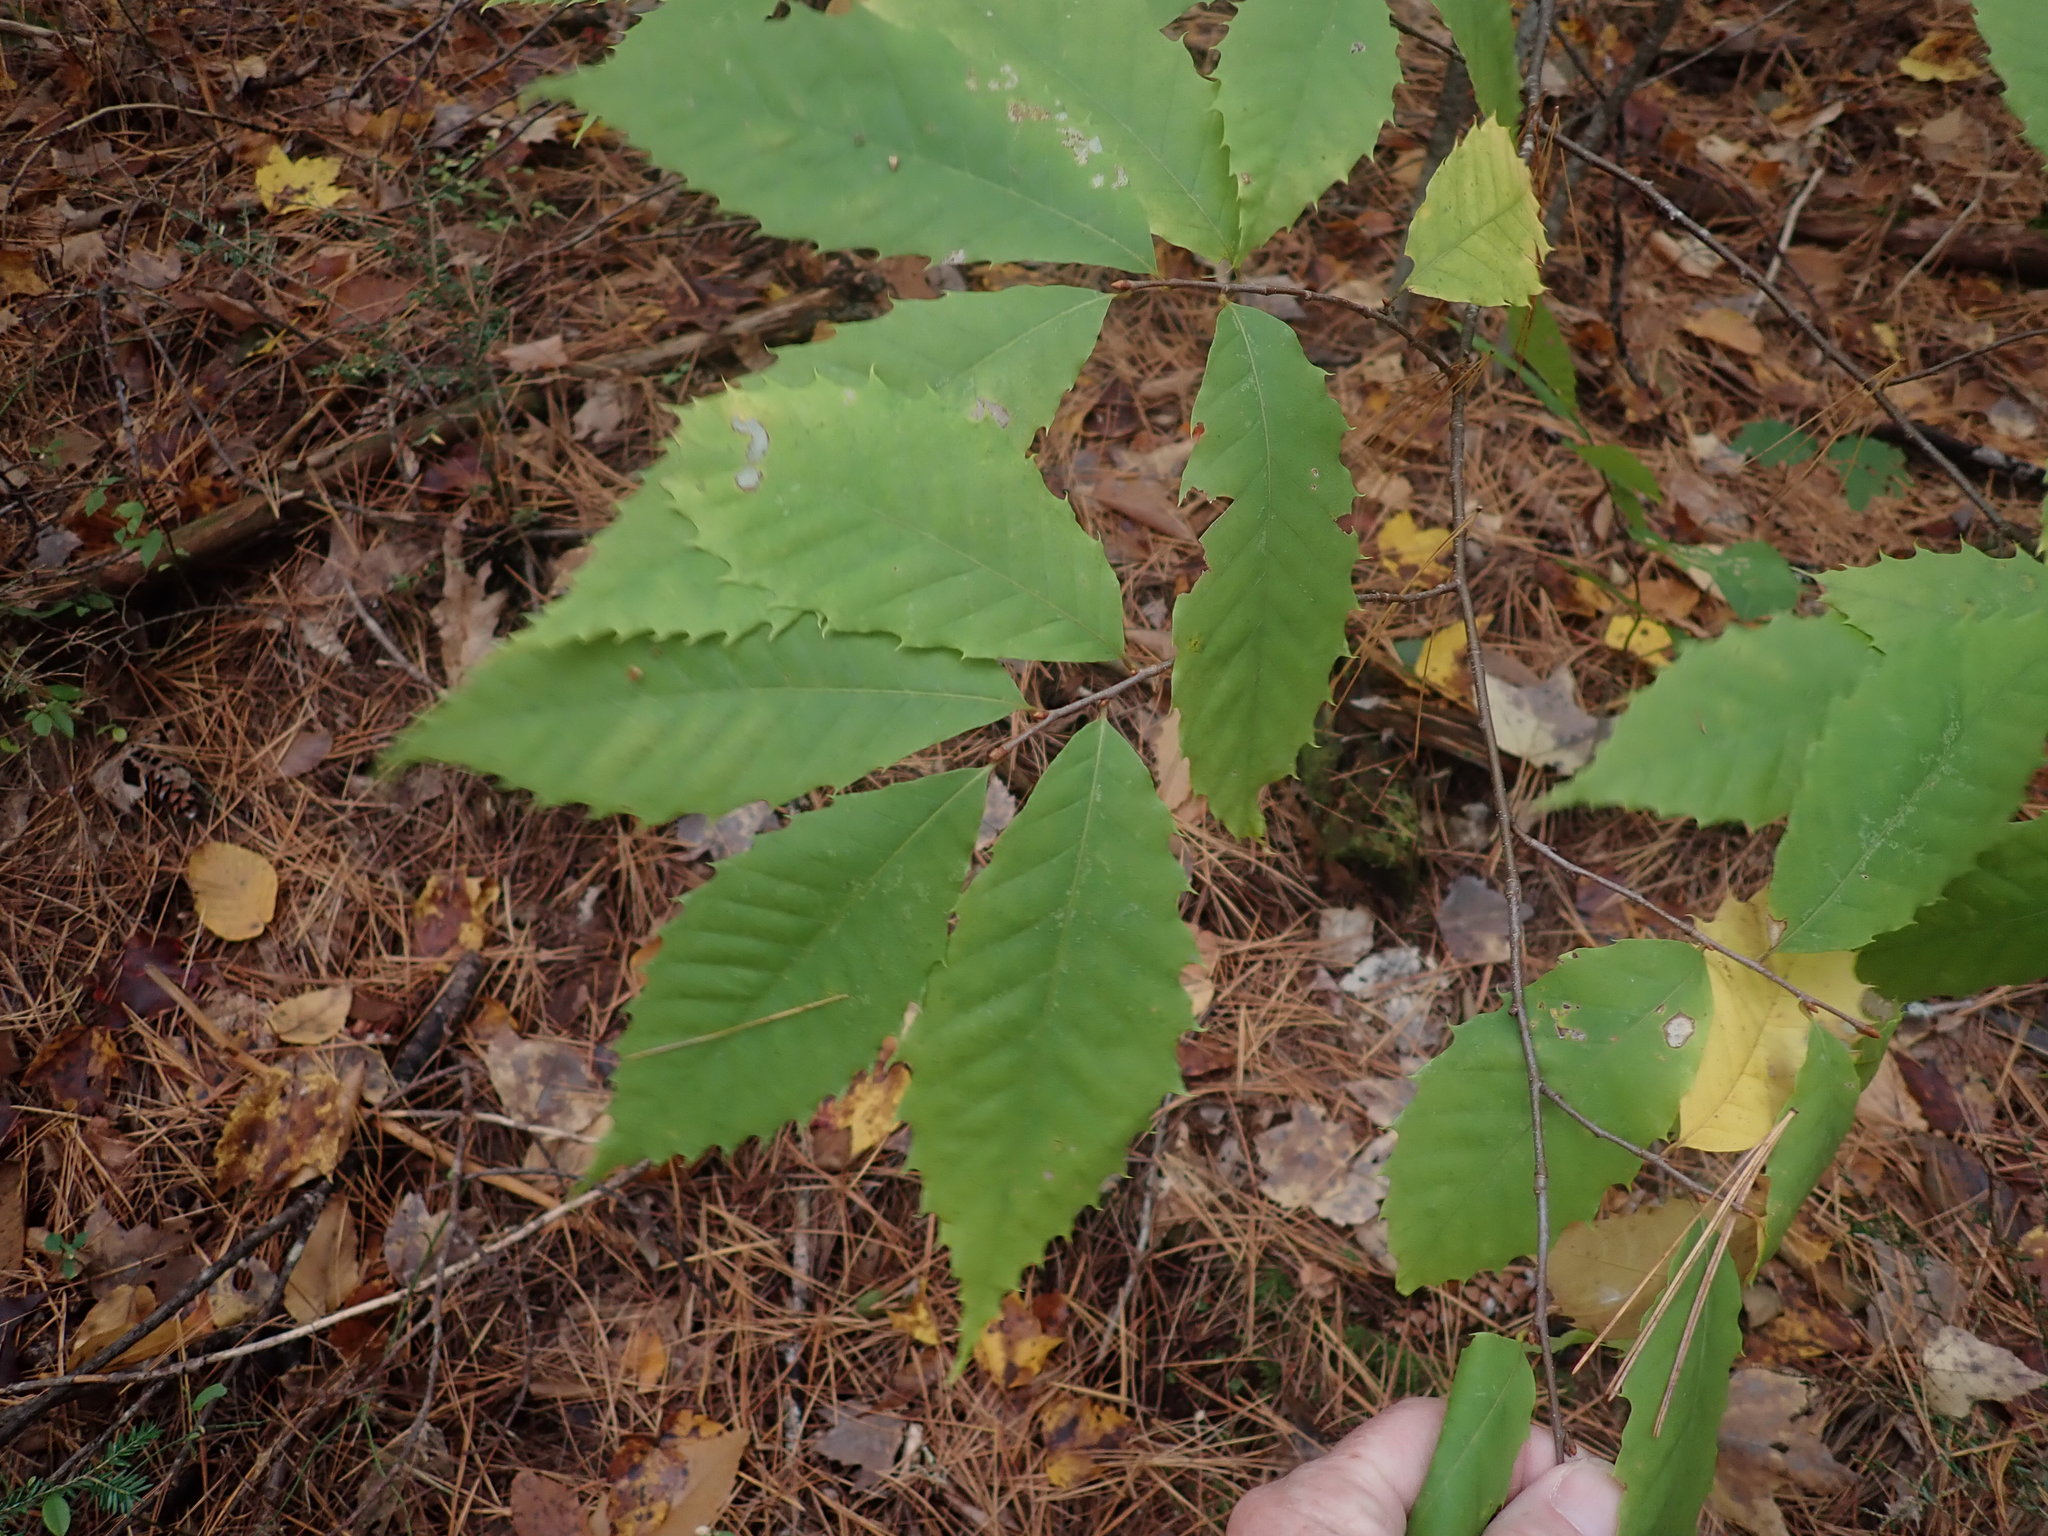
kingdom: Plantae
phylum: Tracheophyta
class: Magnoliopsida
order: Fagales
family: Fagaceae
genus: Castanea
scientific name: Castanea dentata
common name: American chestnut
